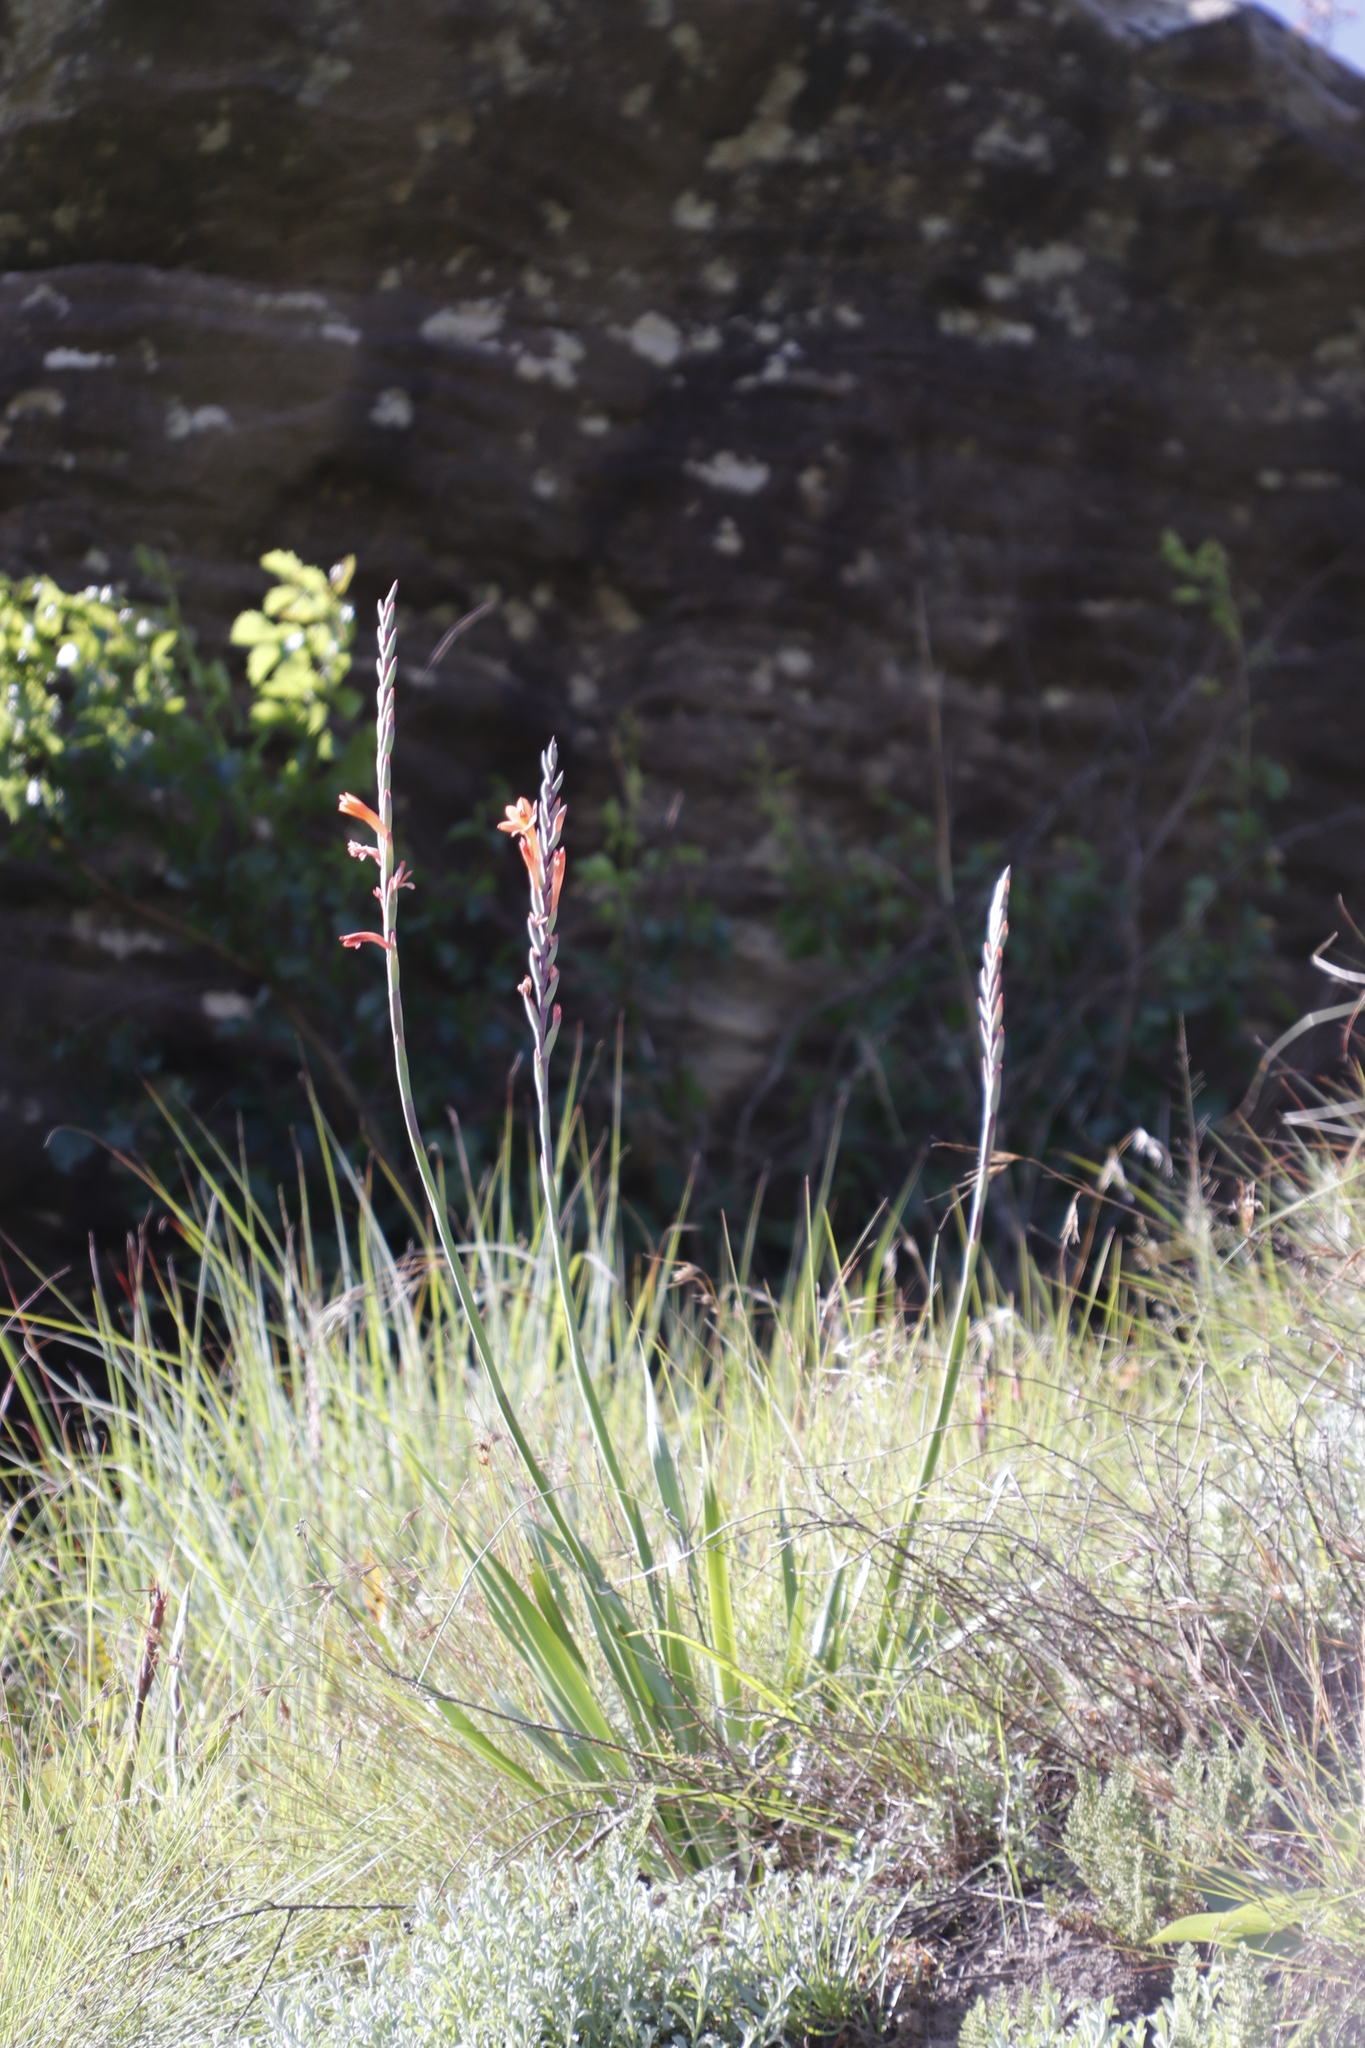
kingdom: Plantae
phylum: Tracheophyta
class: Liliopsida
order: Asparagales
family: Iridaceae
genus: Watsonia
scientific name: Watsonia pillansii
